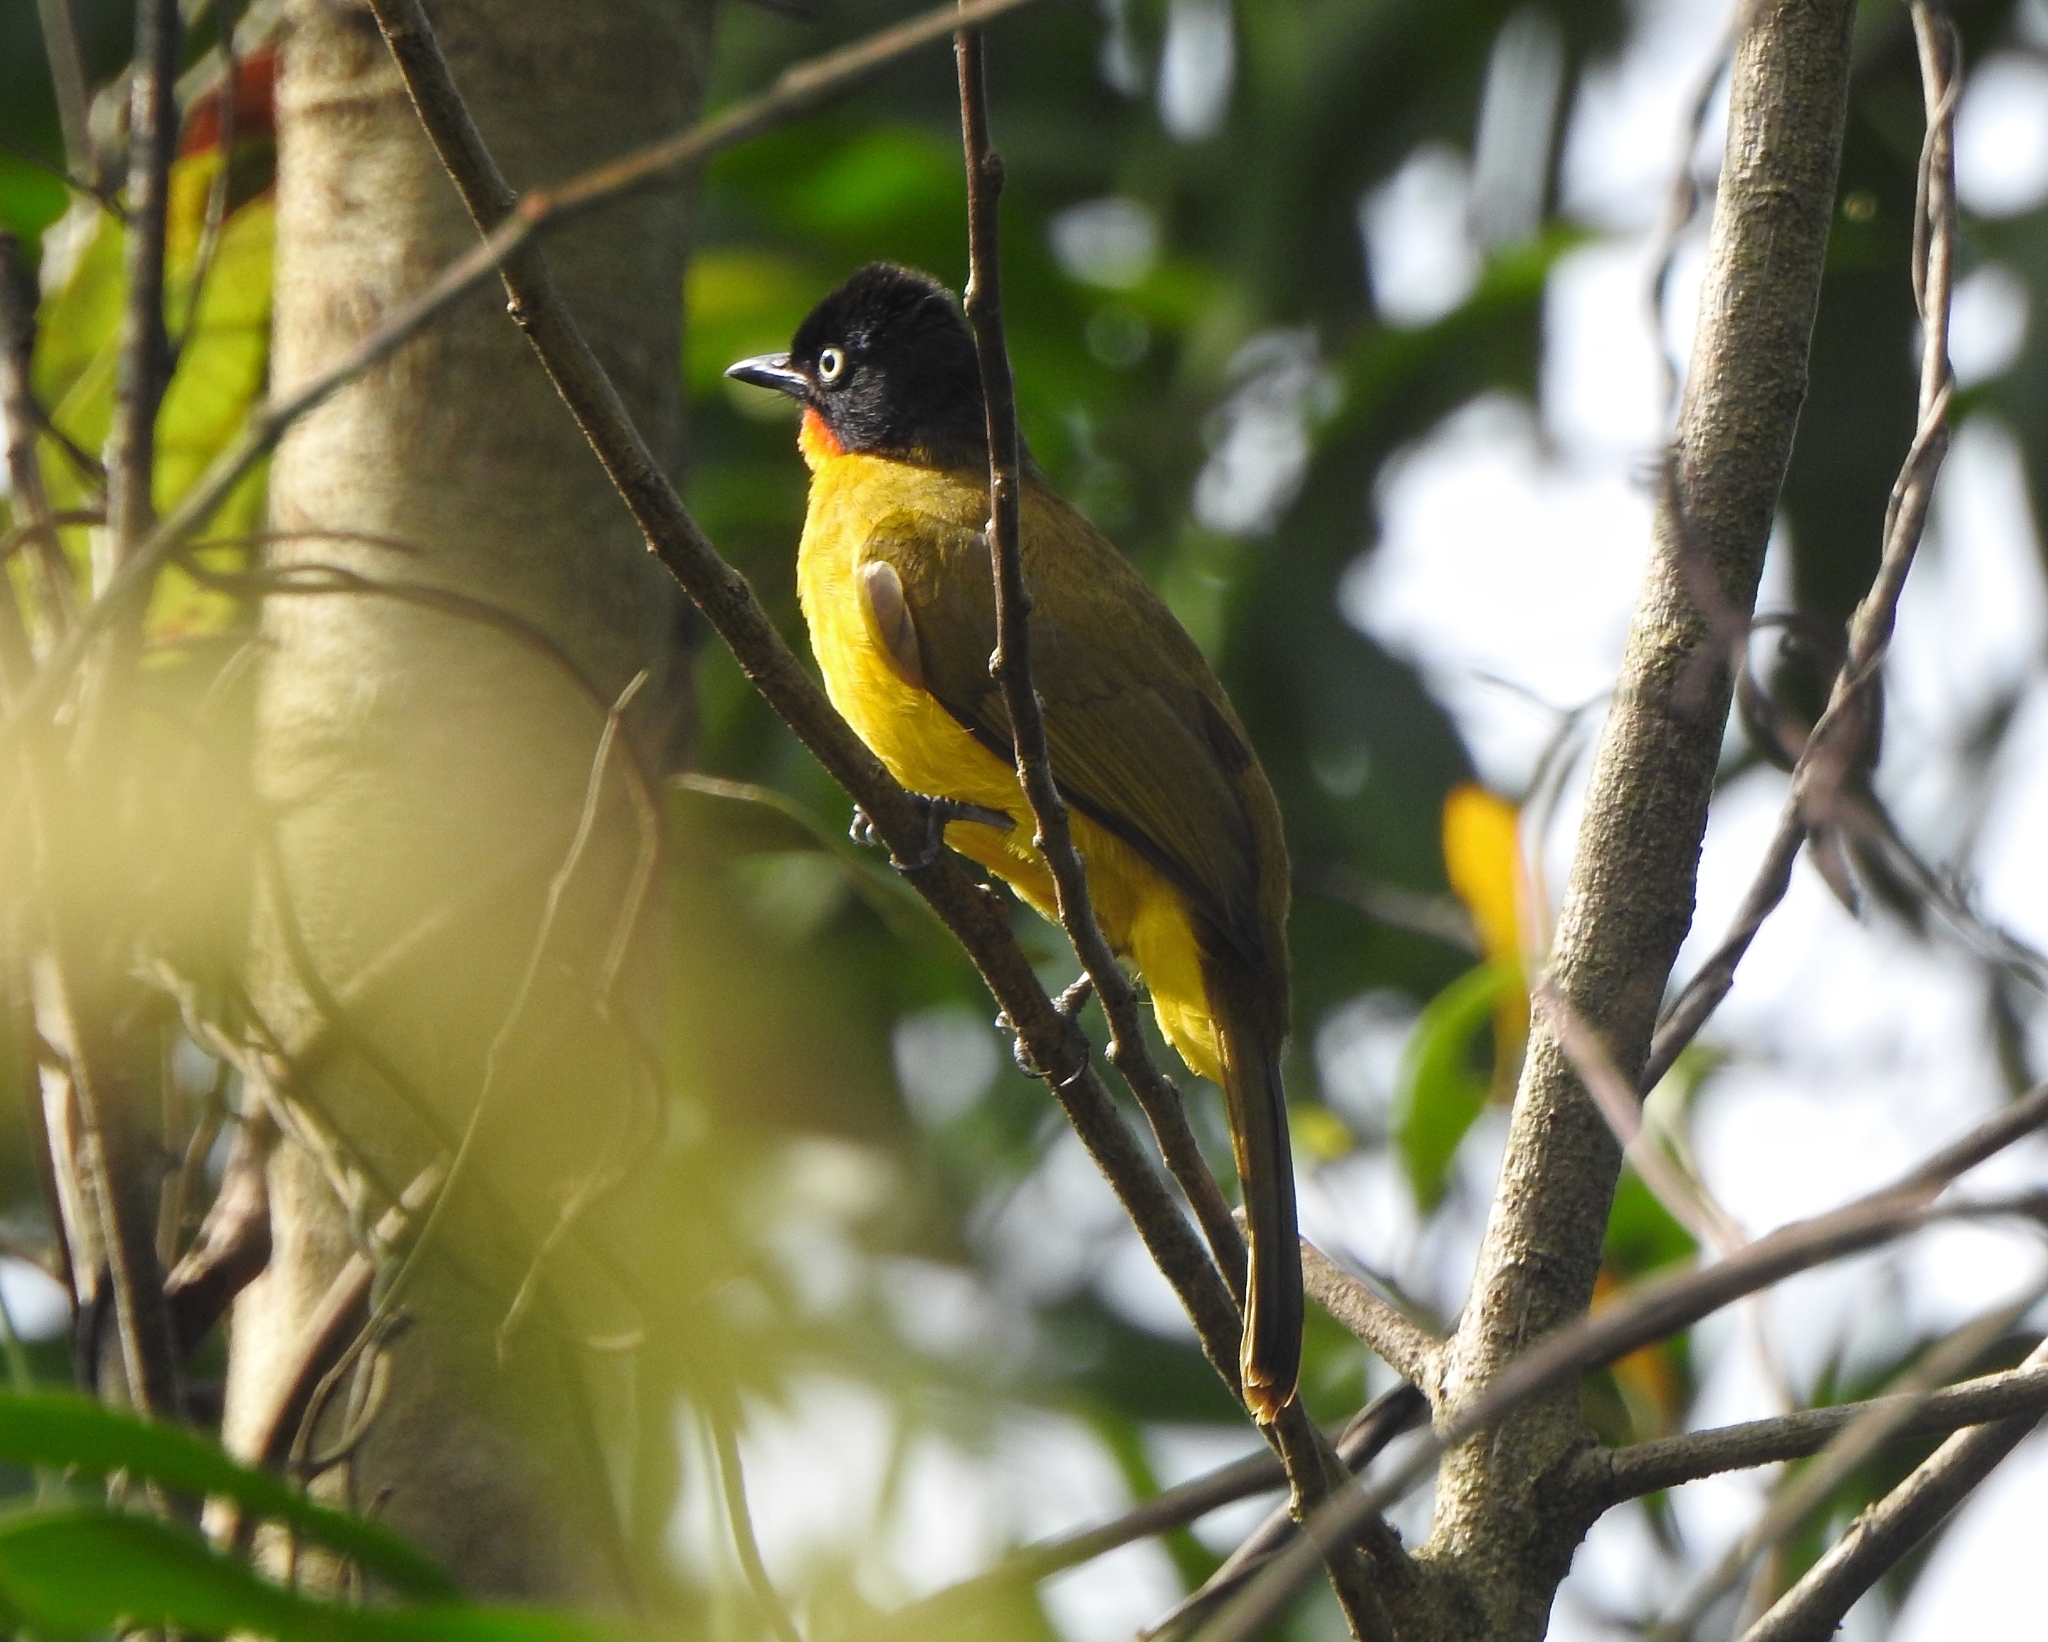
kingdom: Animalia
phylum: Chordata
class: Aves
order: Passeriformes
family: Pycnonotidae
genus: Pycnonotus
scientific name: Pycnonotus gularis
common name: Flame-throated bulbul
